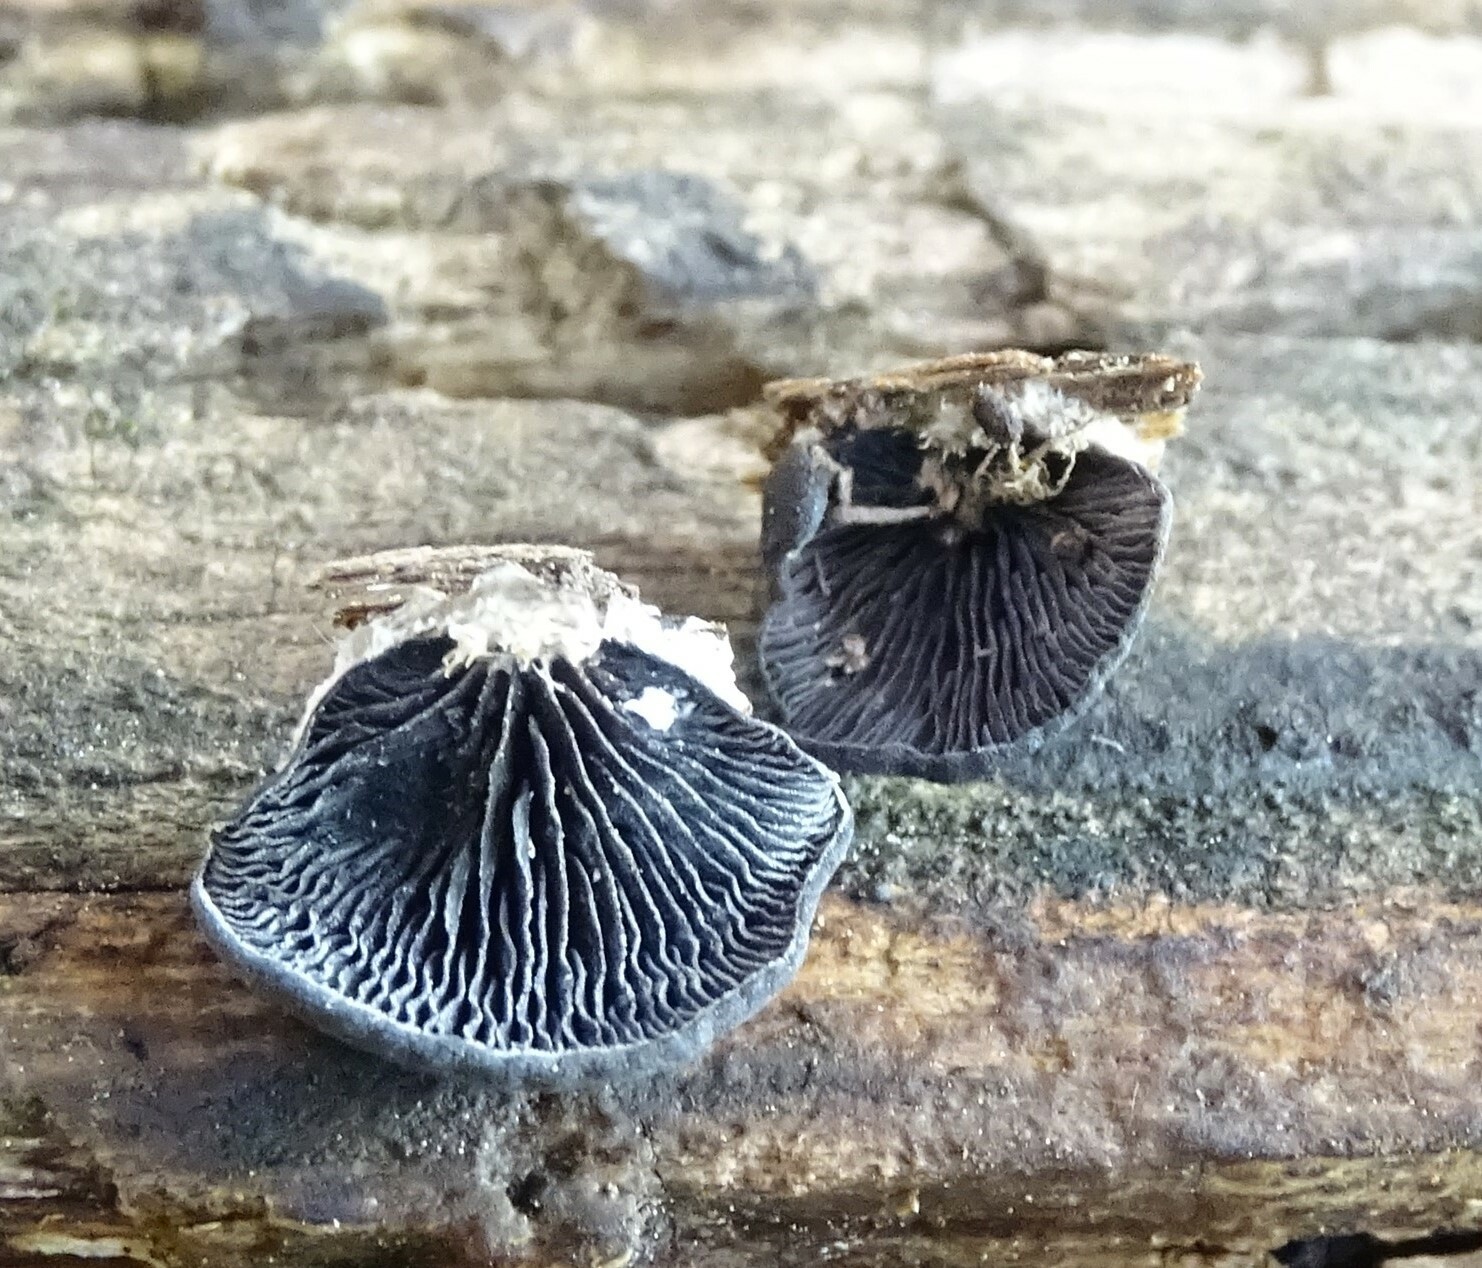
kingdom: Fungi
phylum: Basidiomycota
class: Agaricomycetes
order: Agaricales
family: Pleurotaceae
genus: Resupinatus
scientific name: Resupinatus applicatus
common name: Smoked oysterling
